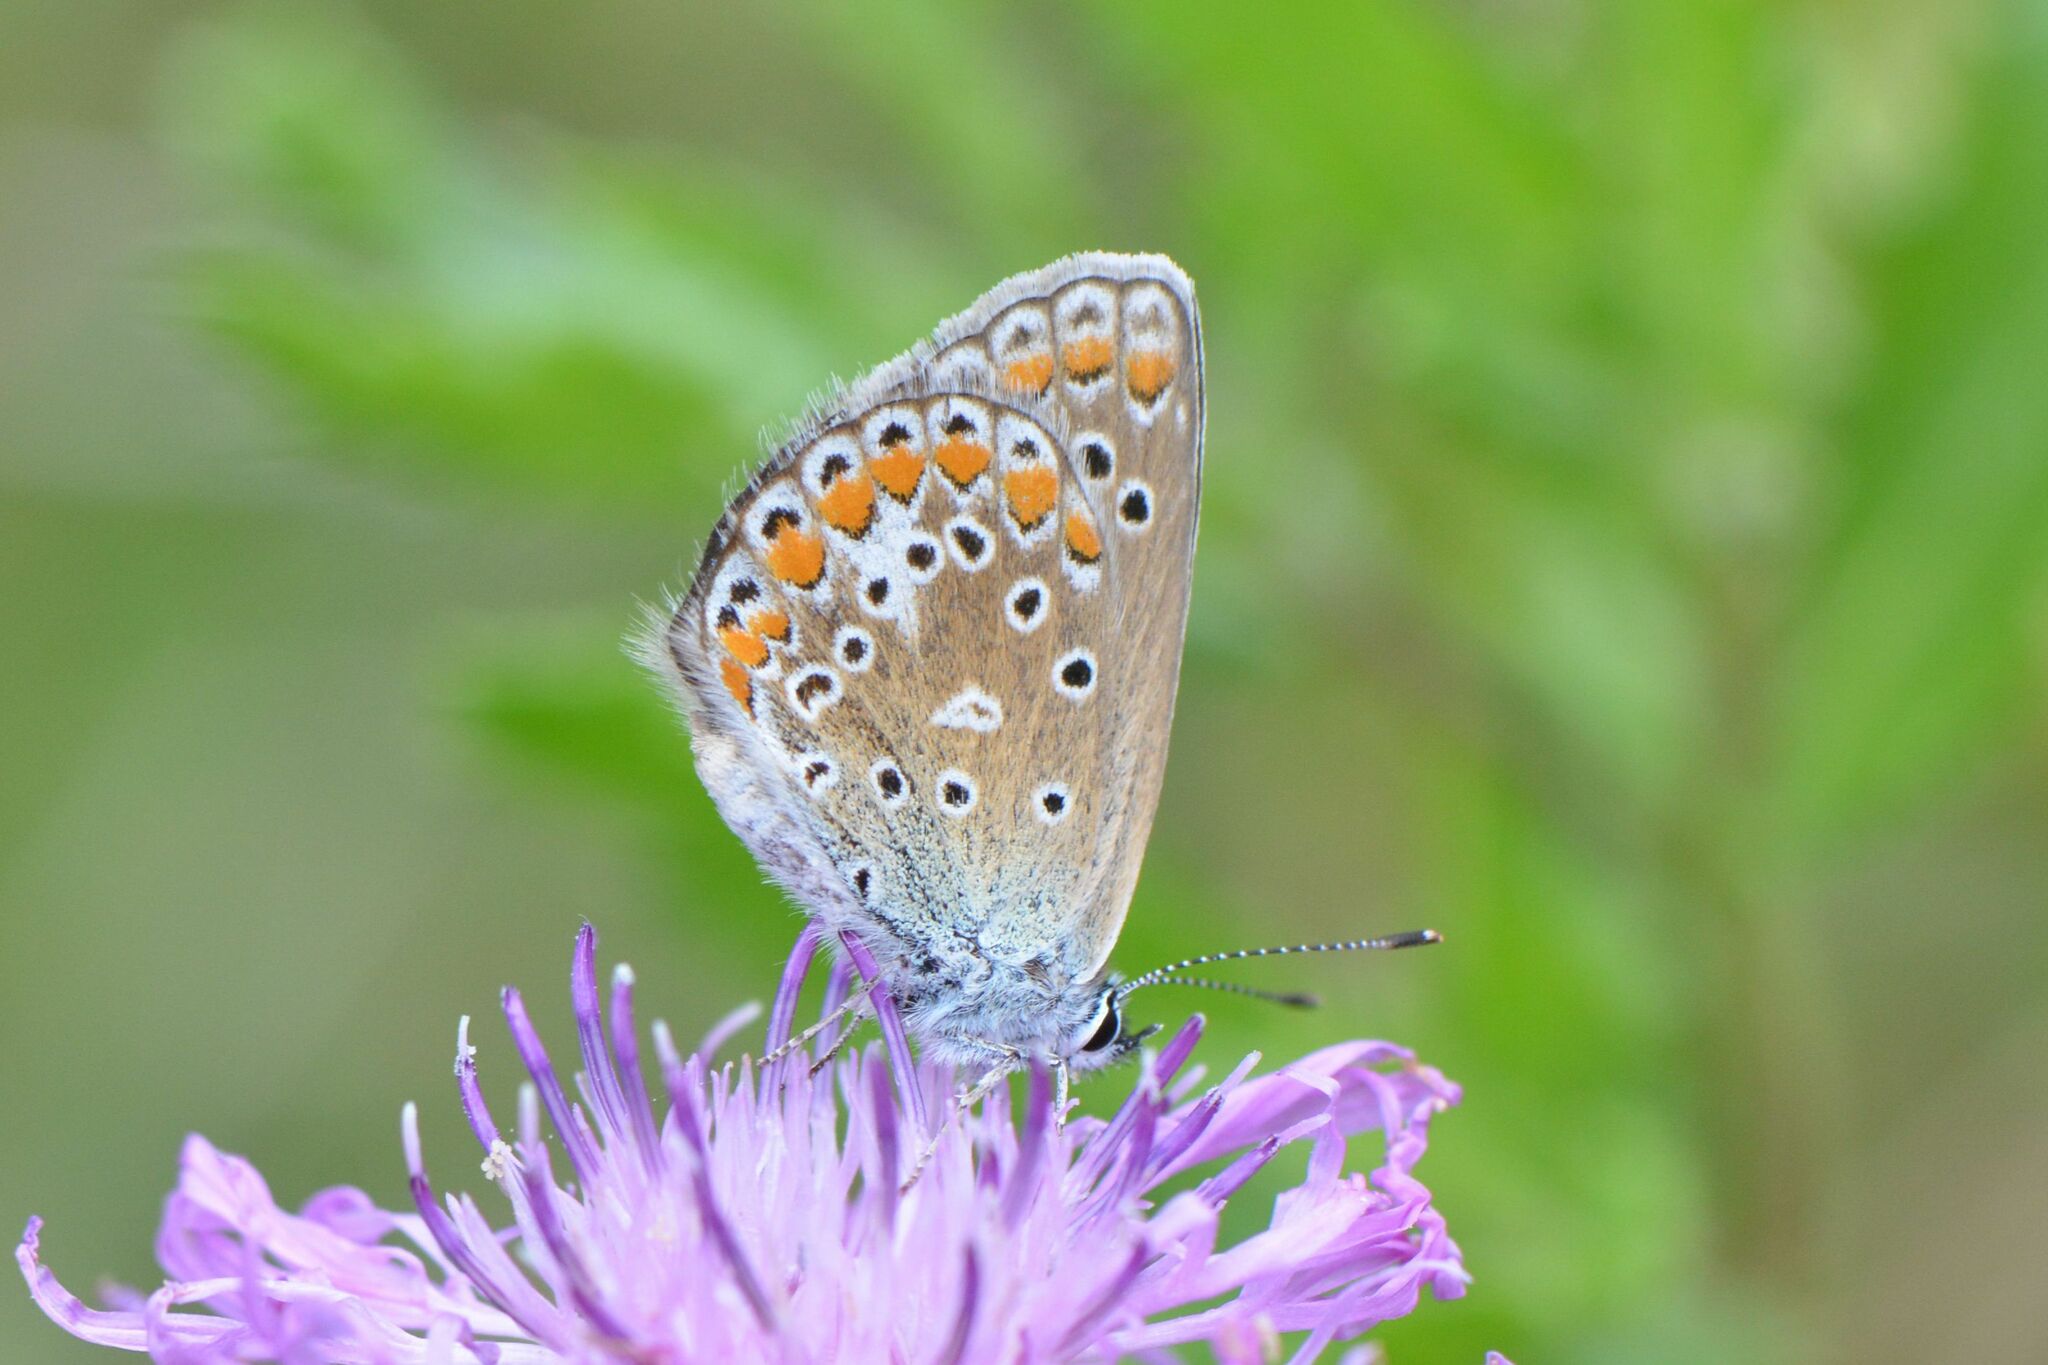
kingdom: Animalia
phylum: Arthropoda
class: Insecta
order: Lepidoptera
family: Lycaenidae
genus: Polyommatus
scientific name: Polyommatus icarus
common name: Common blue
